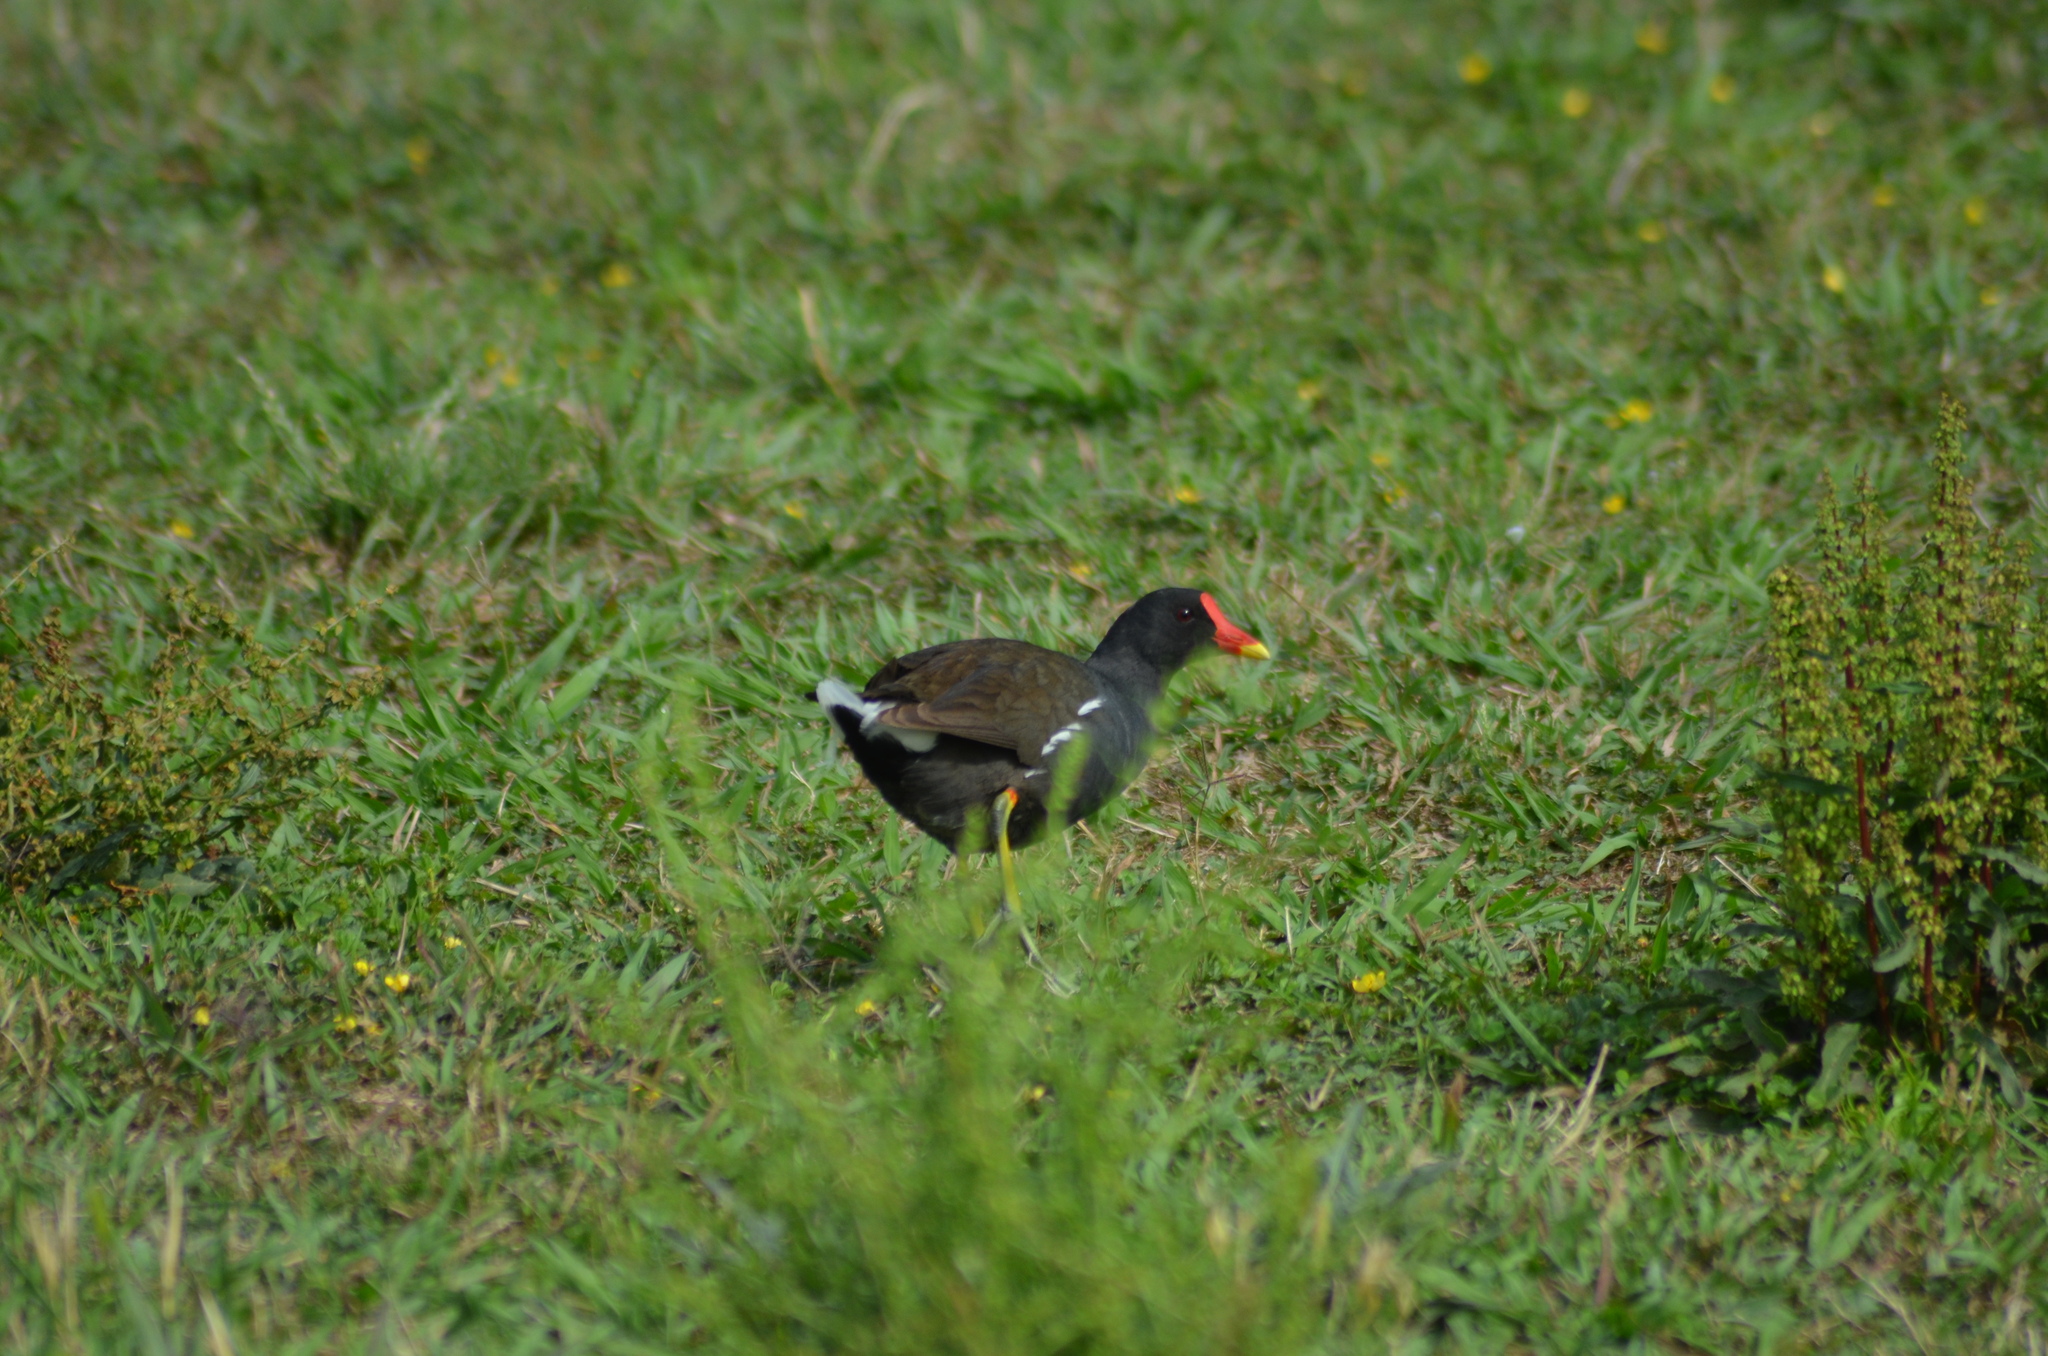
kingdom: Animalia
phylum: Chordata
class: Aves
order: Gruiformes
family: Rallidae
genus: Gallinula
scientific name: Gallinula chloropus
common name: Common moorhen
